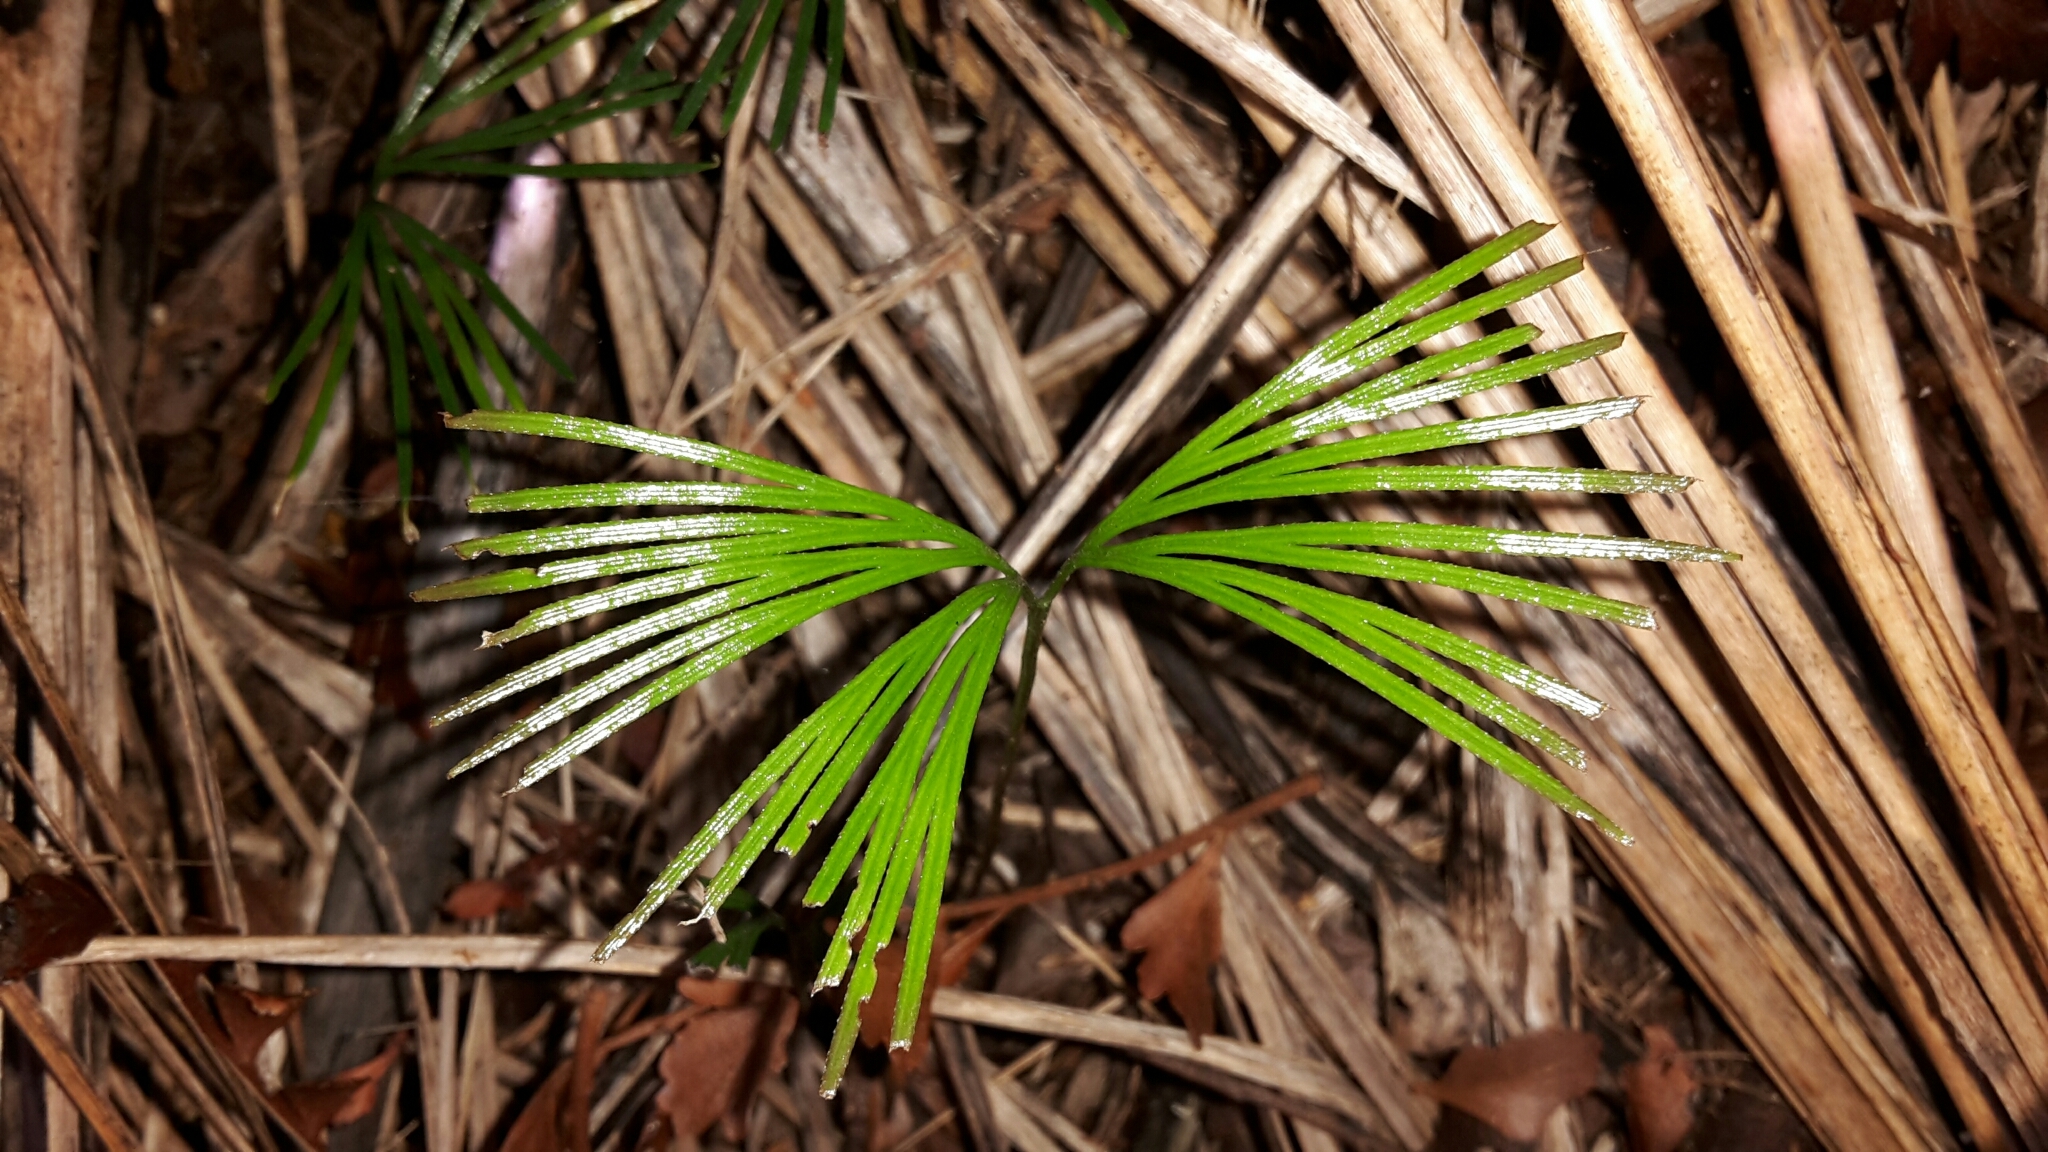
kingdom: Plantae
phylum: Tracheophyta
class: Polypodiopsida
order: Schizaeales
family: Schizaeaceae
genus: Schizaea
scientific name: Schizaea dichotoma
